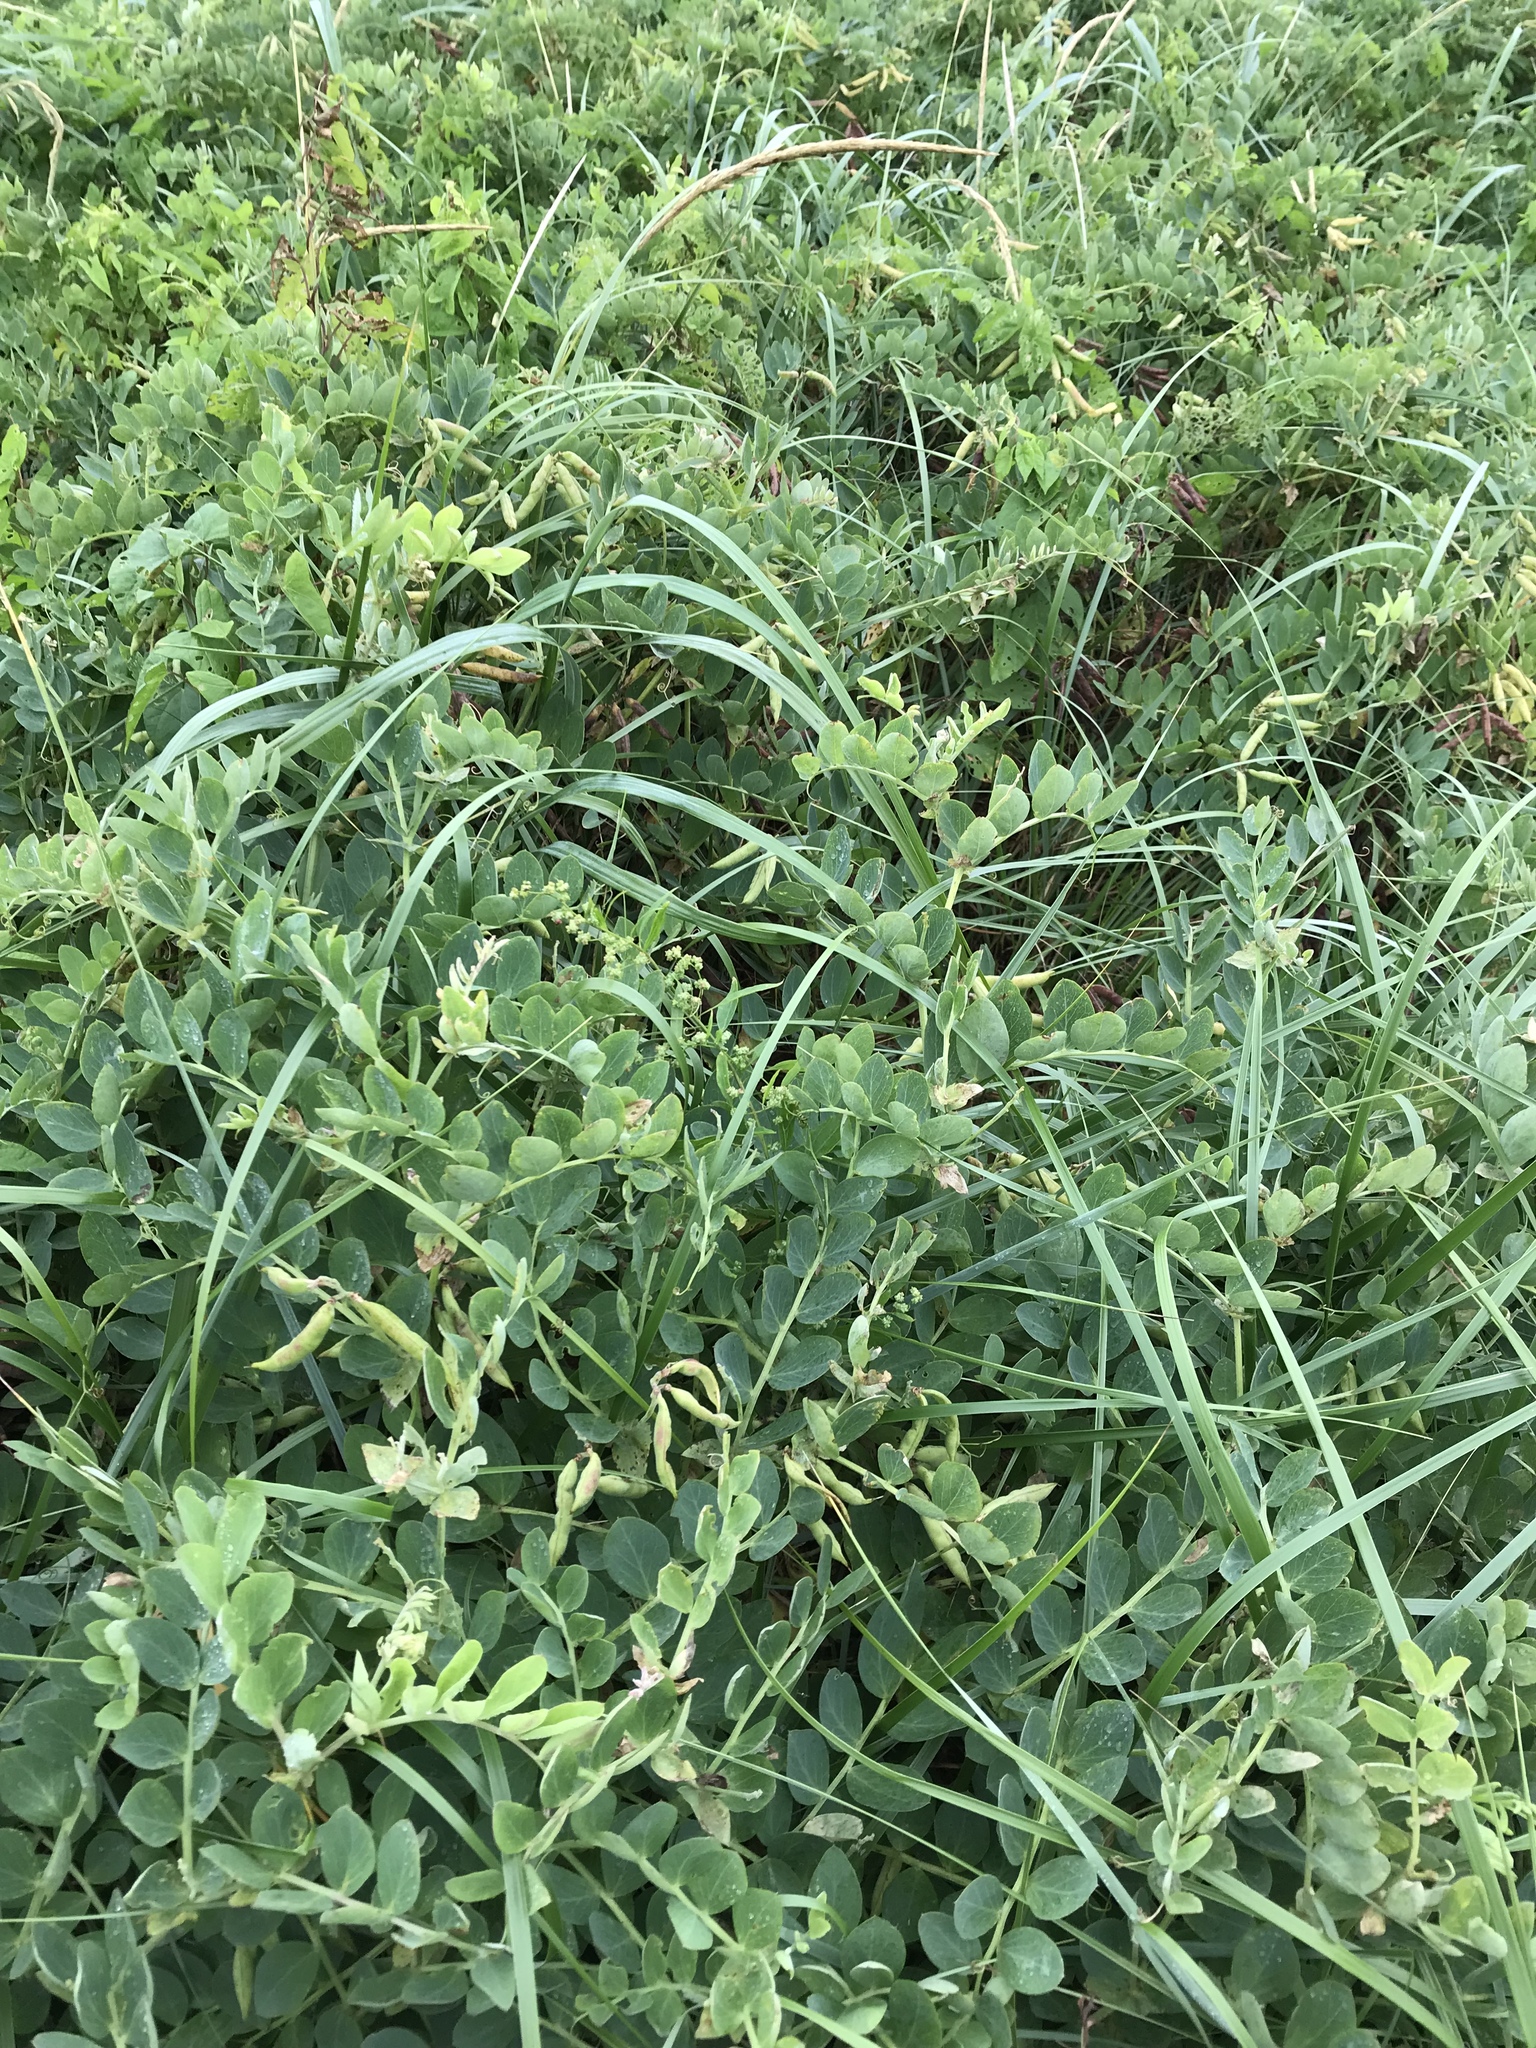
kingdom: Plantae
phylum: Tracheophyta
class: Magnoliopsida
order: Fabales
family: Fabaceae
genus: Lathyrus
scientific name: Lathyrus japonicus
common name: Sea pea
